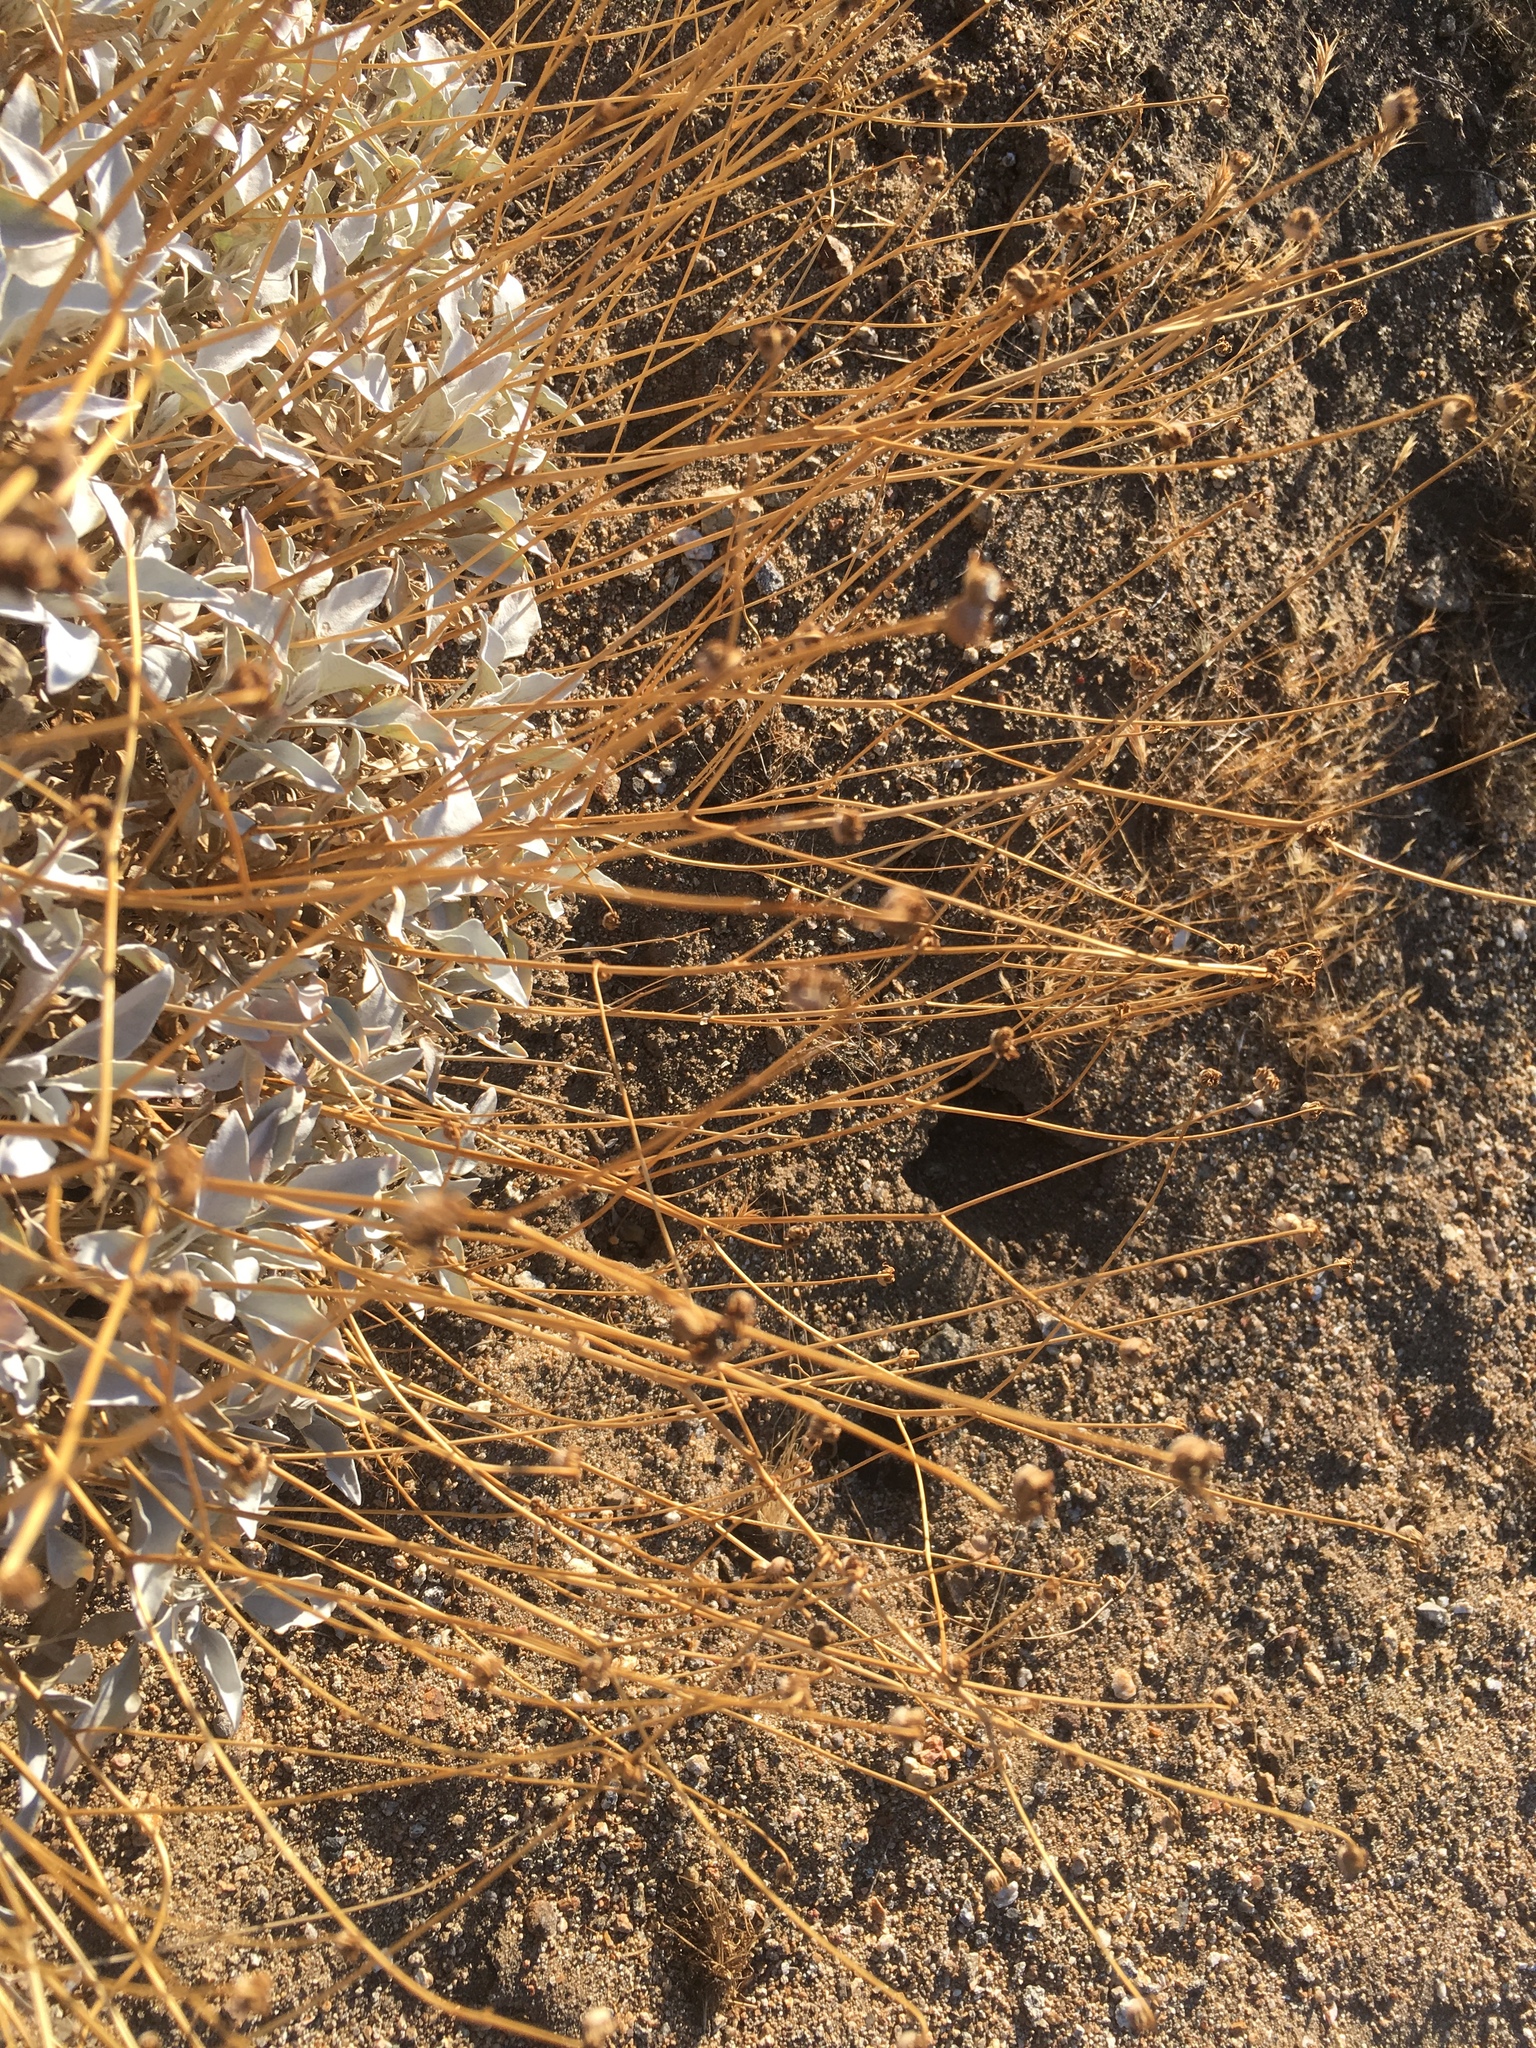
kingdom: Plantae
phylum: Tracheophyta
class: Magnoliopsida
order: Asterales
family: Asteraceae
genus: Encelia
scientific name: Encelia farinosa
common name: Brittlebush
